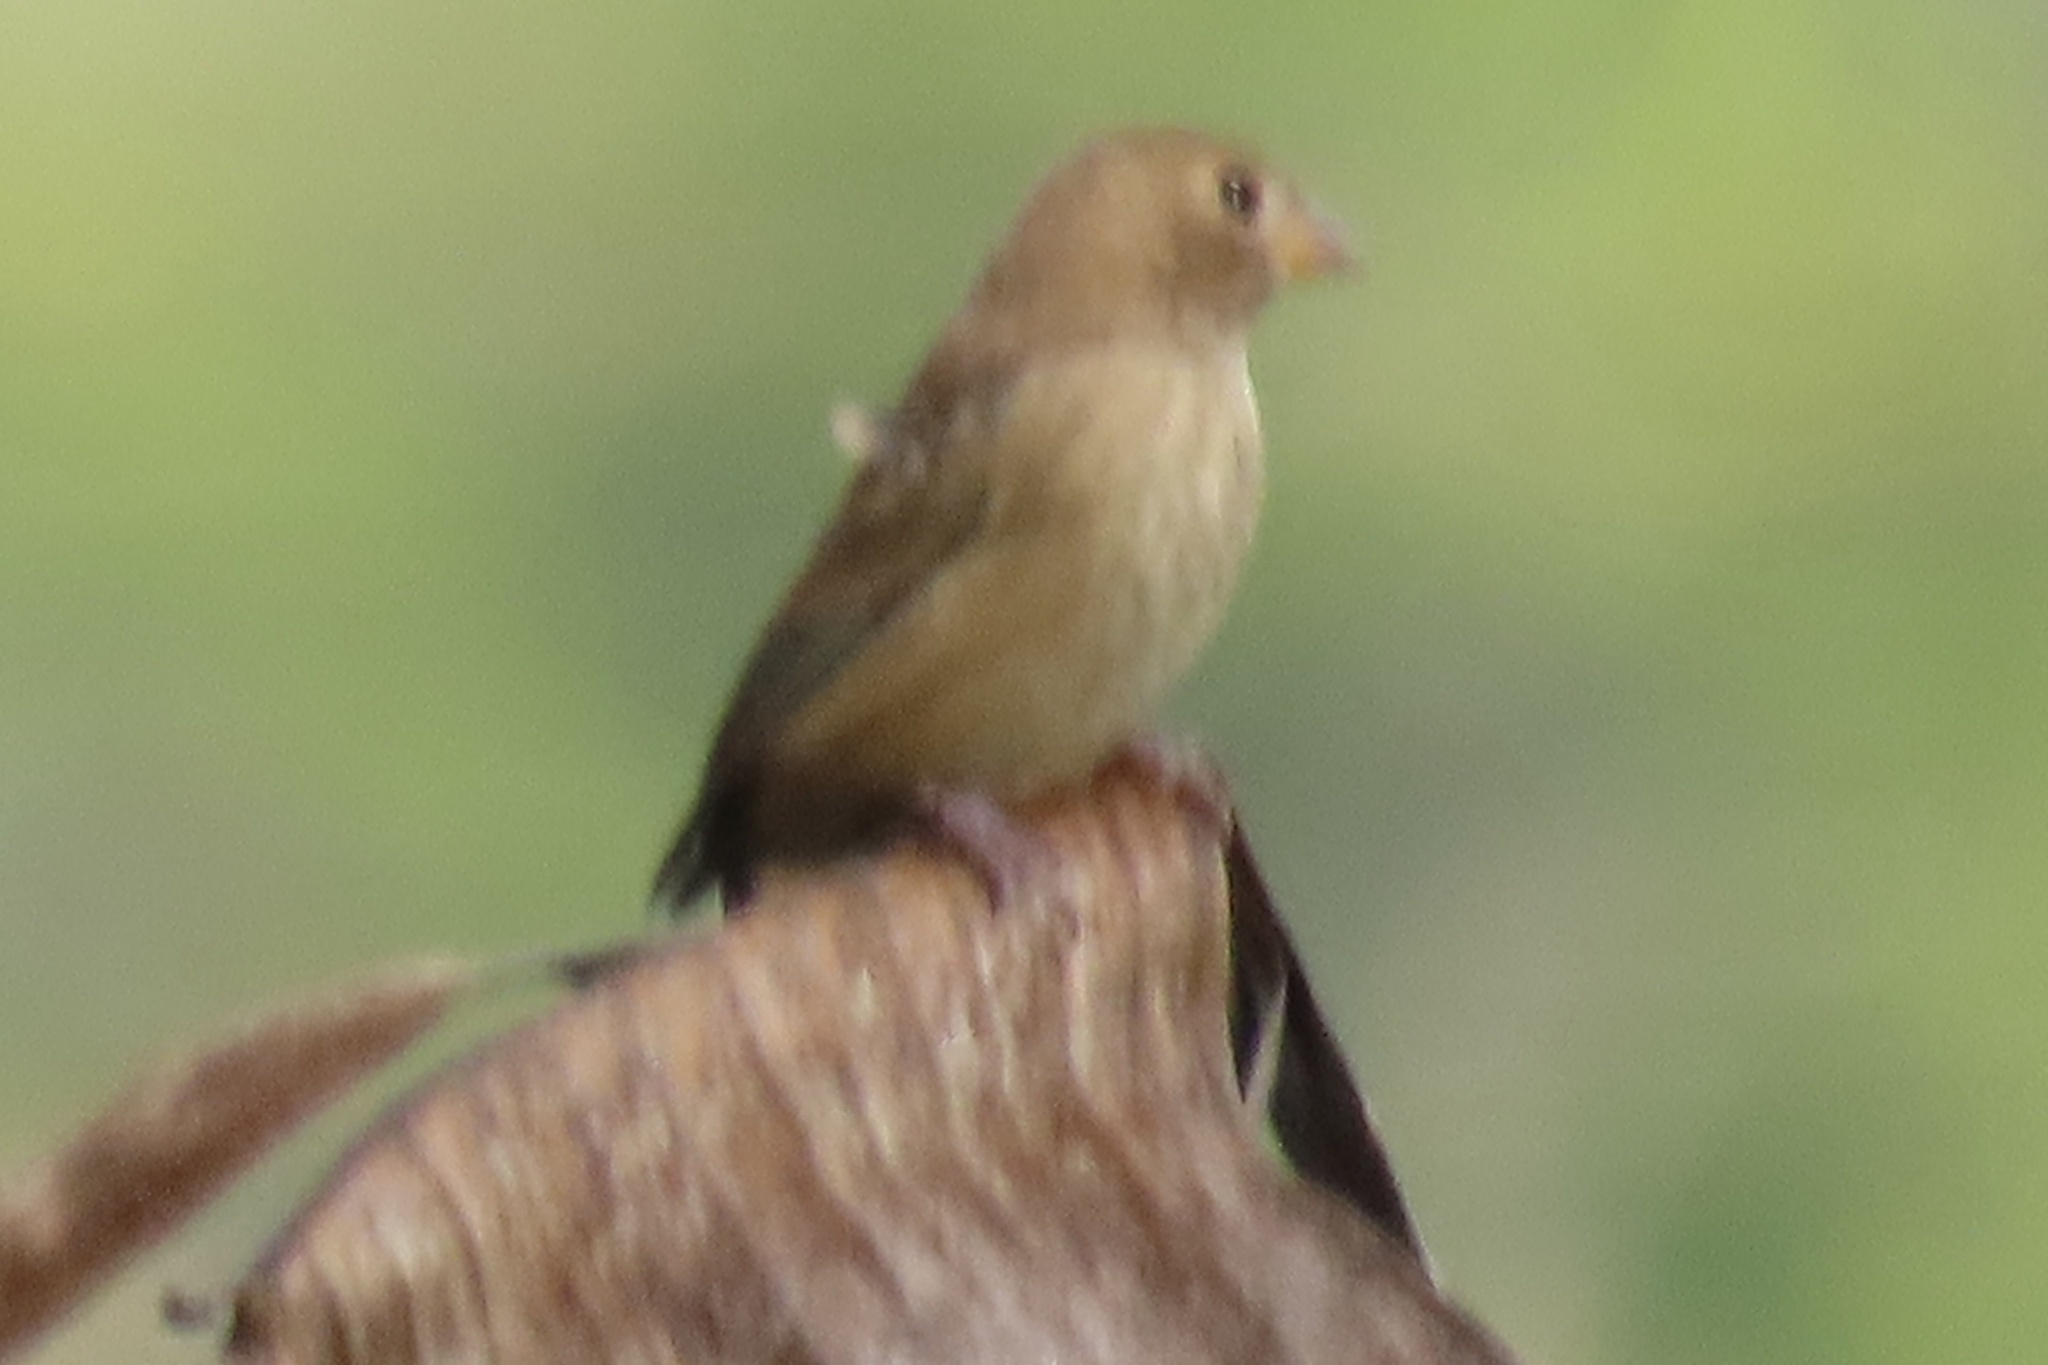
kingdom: Animalia
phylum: Chordata
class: Aves
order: Passeriformes
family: Cardinalidae
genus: Passerina
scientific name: Passerina cyanea
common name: Indigo bunting
